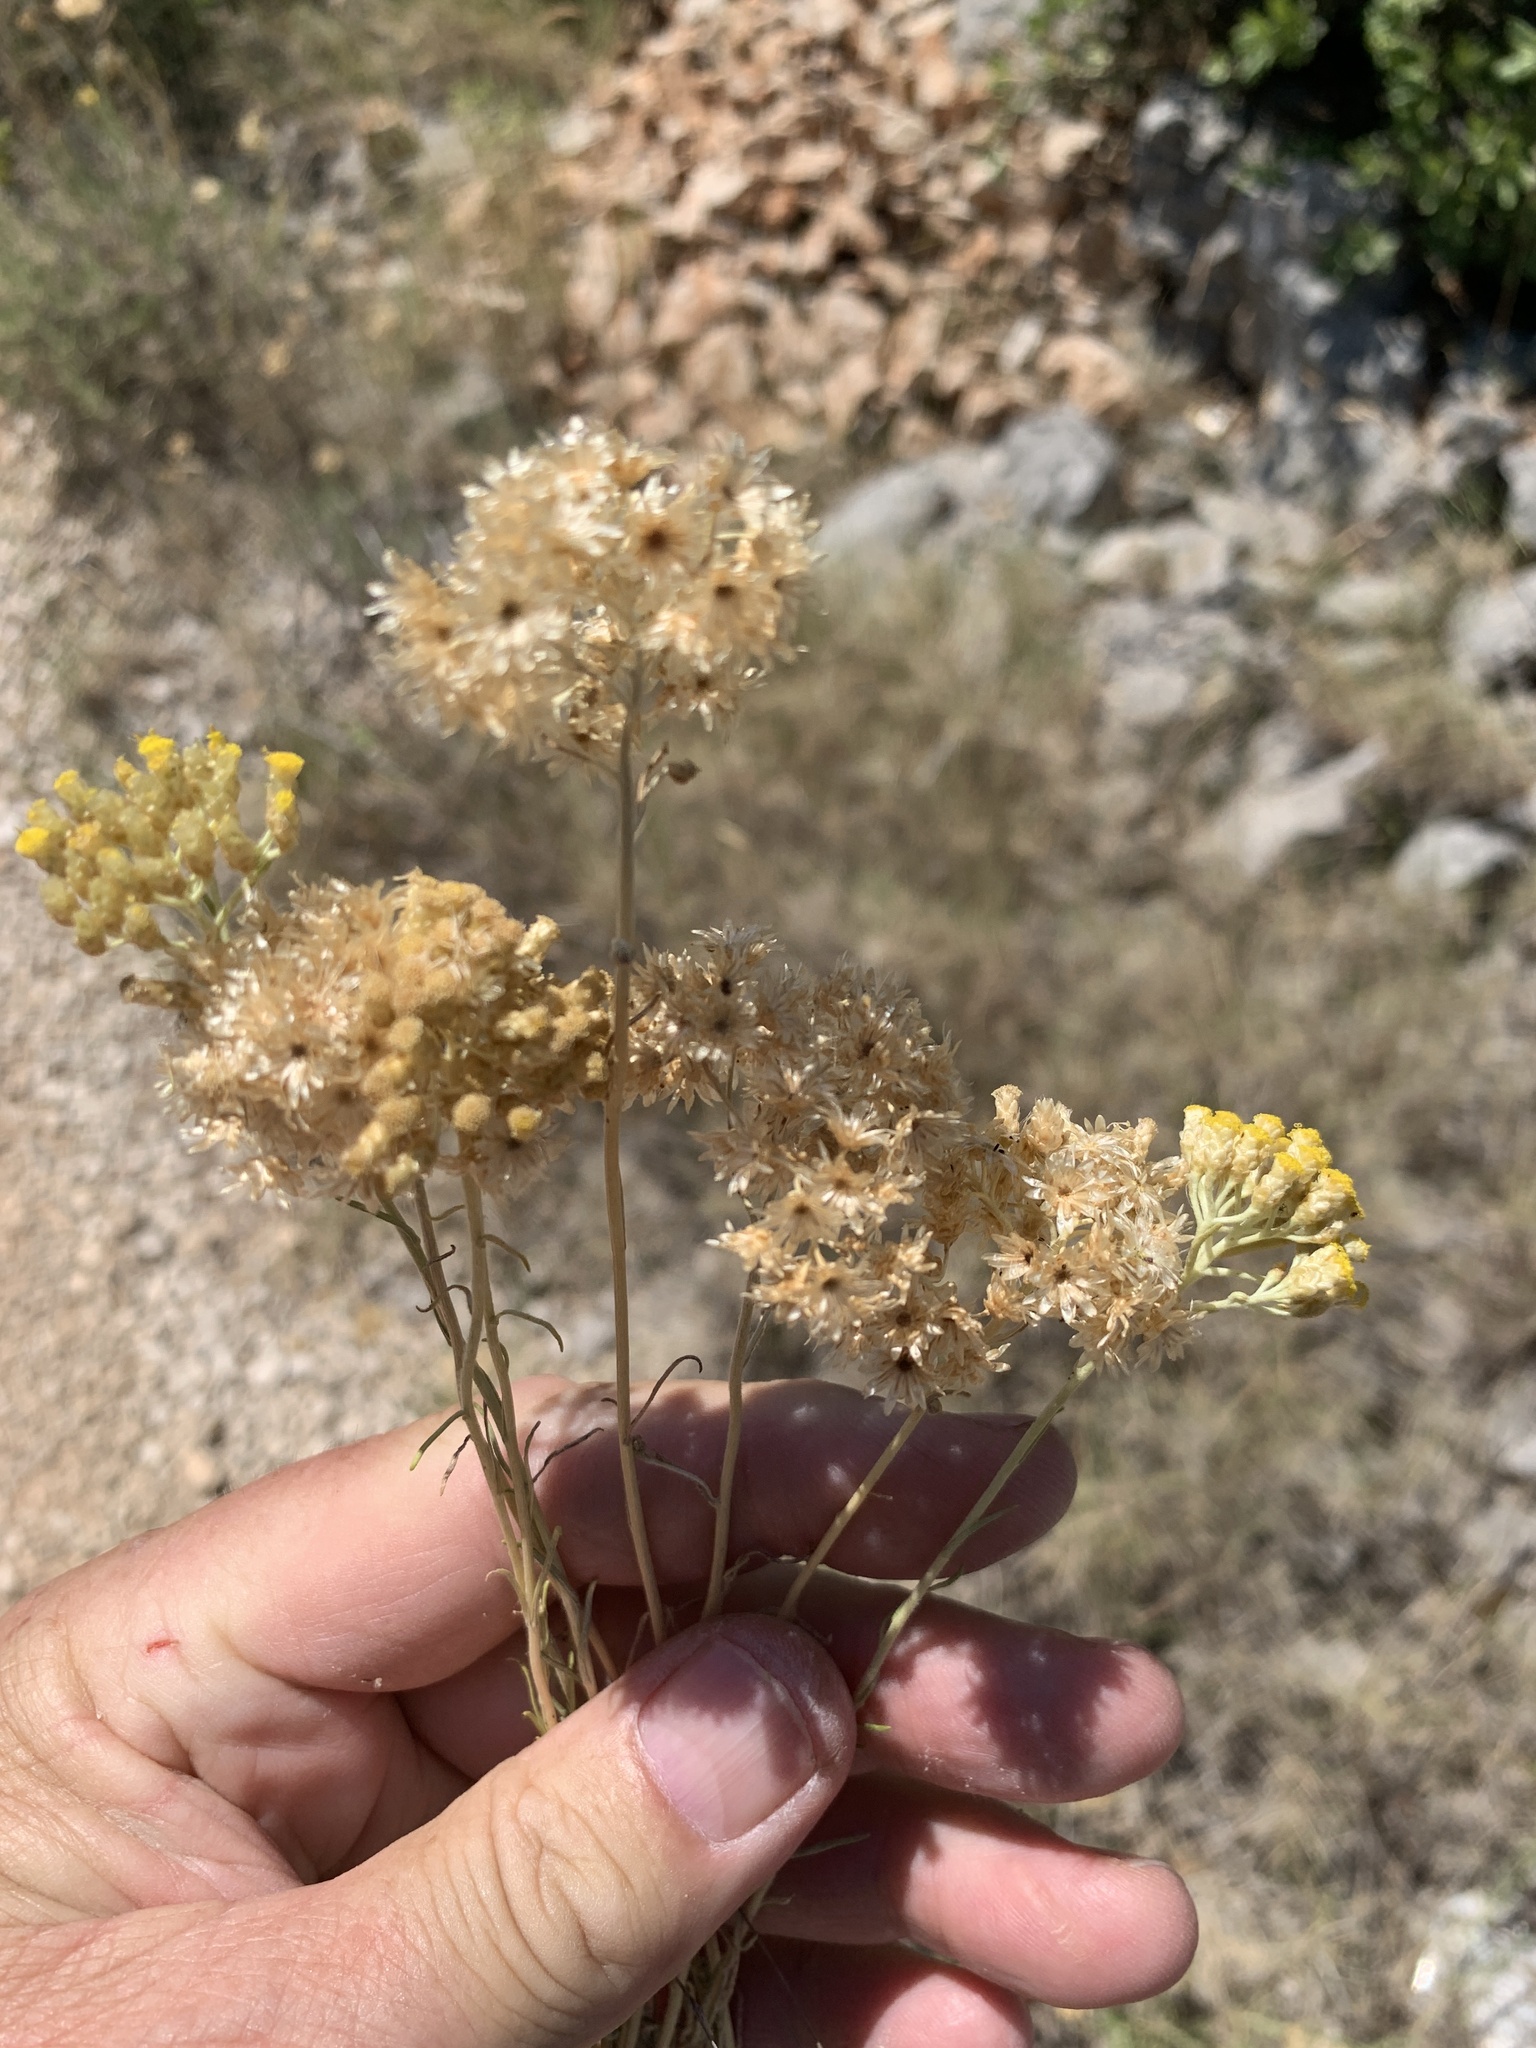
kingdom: Plantae
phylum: Tracheophyta
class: Magnoliopsida
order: Asterales
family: Asteraceae
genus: Helichrysum
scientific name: Helichrysum italicum
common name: Curryplant
